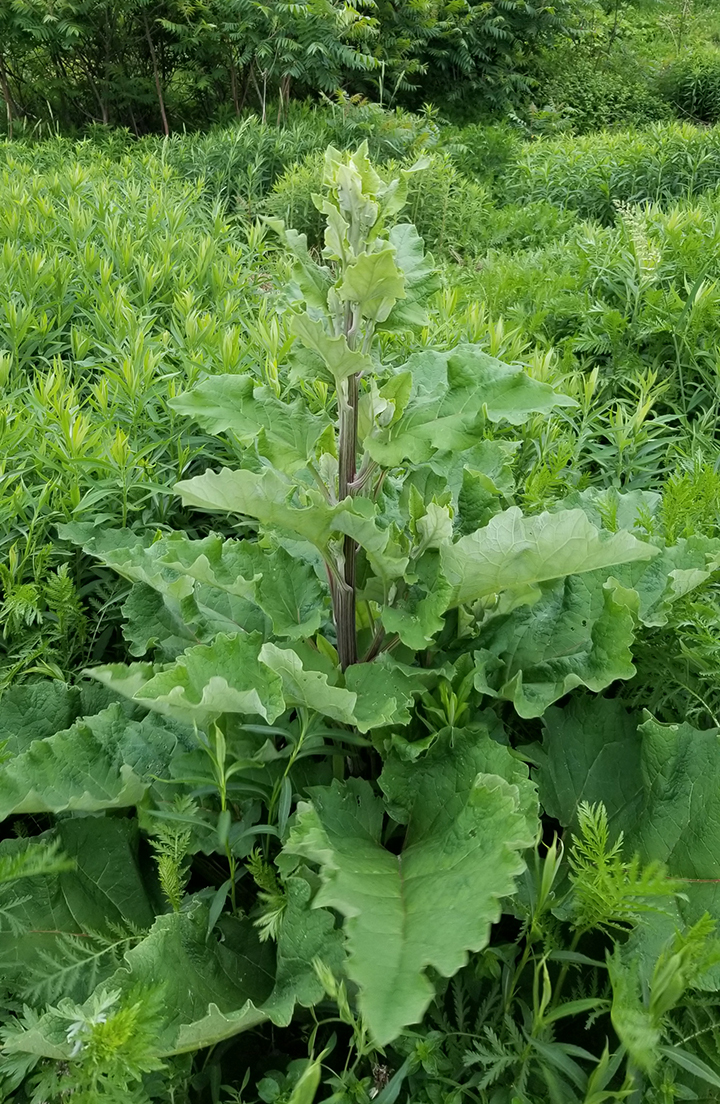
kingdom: Plantae
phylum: Tracheophyta
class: Magnoliopsida
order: Asterales
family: Asteraceae
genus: Arctium
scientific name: Arctium lappa
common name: Greater burdock
